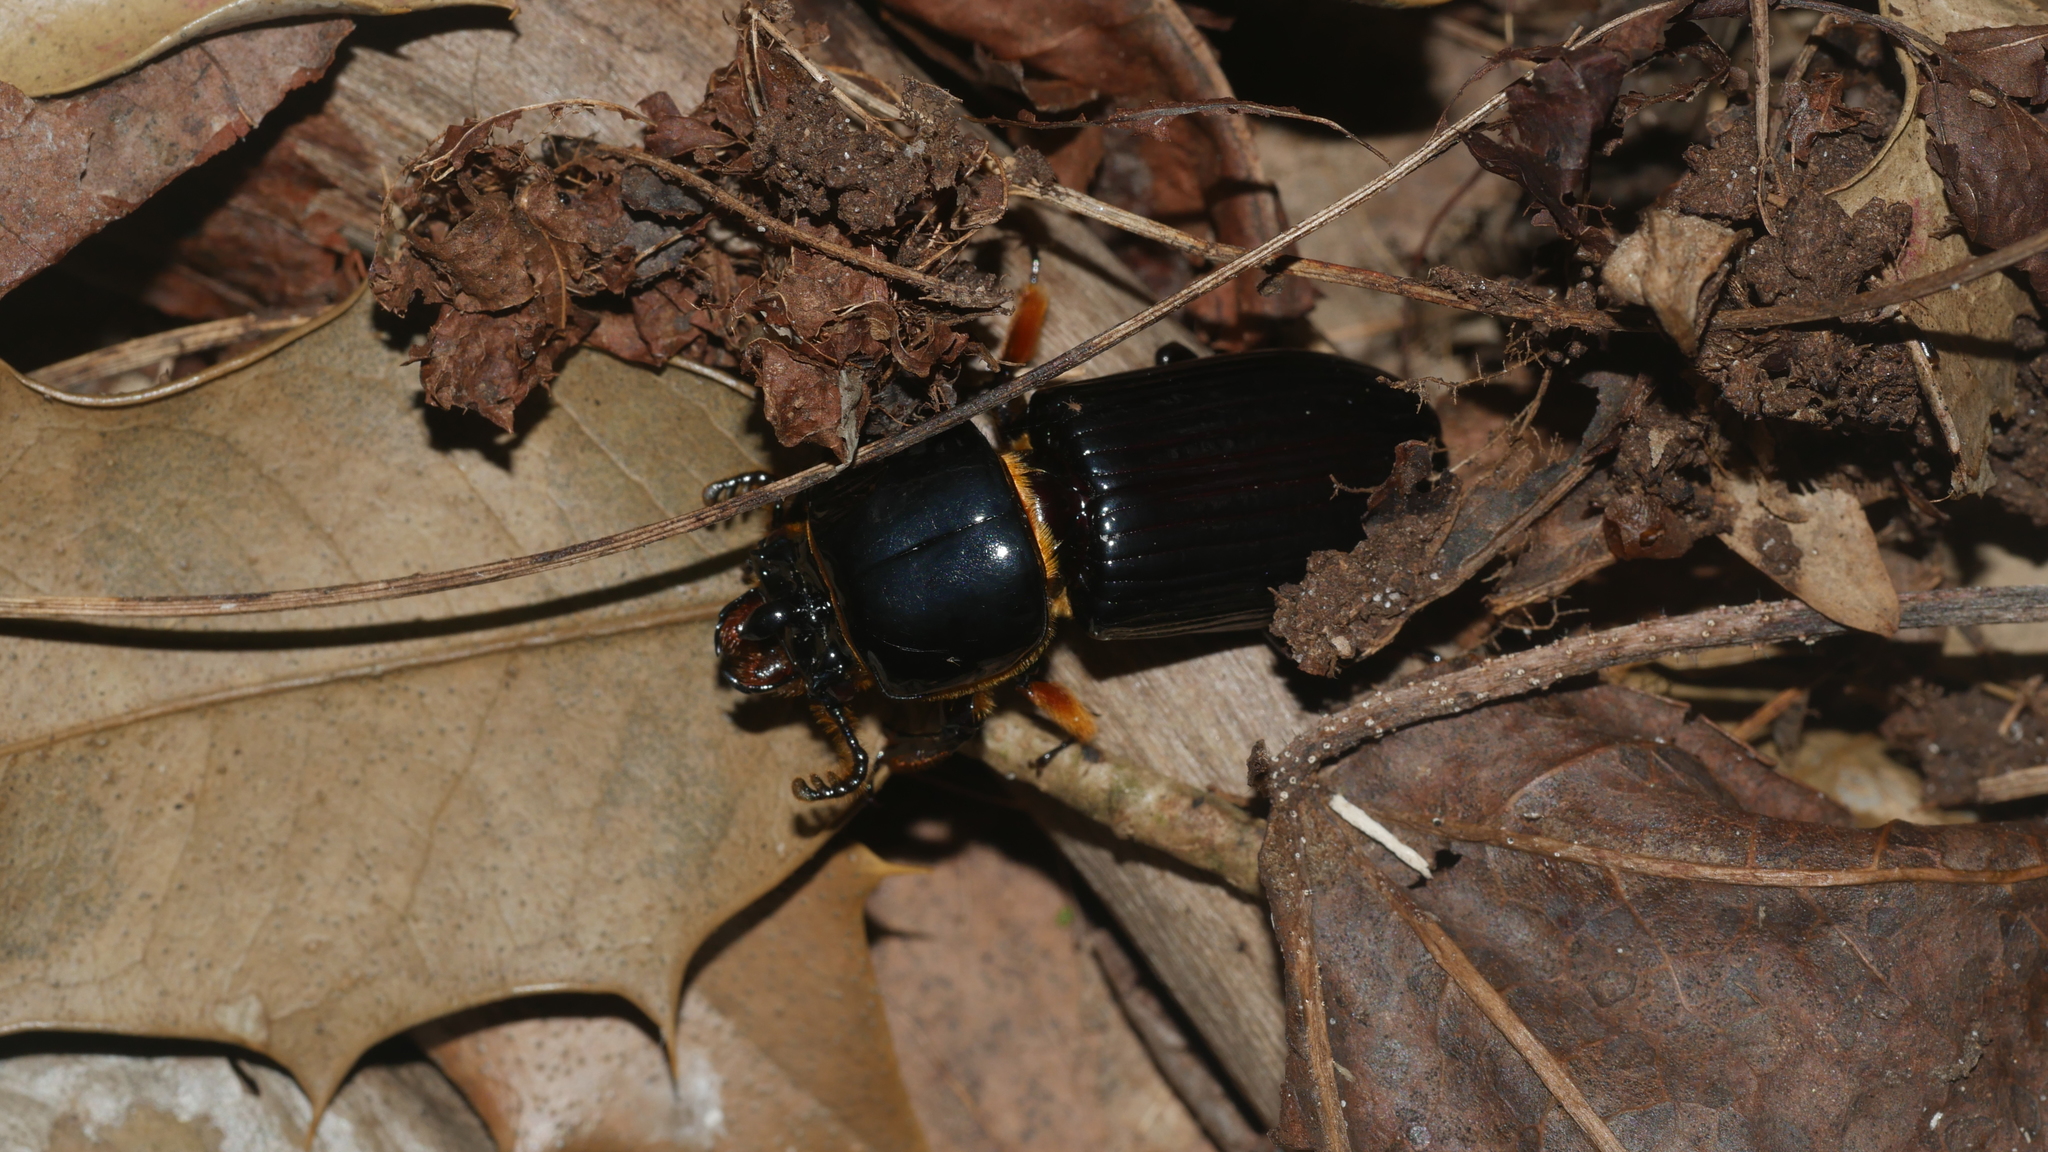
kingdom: Animalia
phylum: Arthropoda
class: Insecta
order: Coleoptera
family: Passalidae
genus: Odontotaenius
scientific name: Odontotaenius disjunctus
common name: Patent leather beetle
